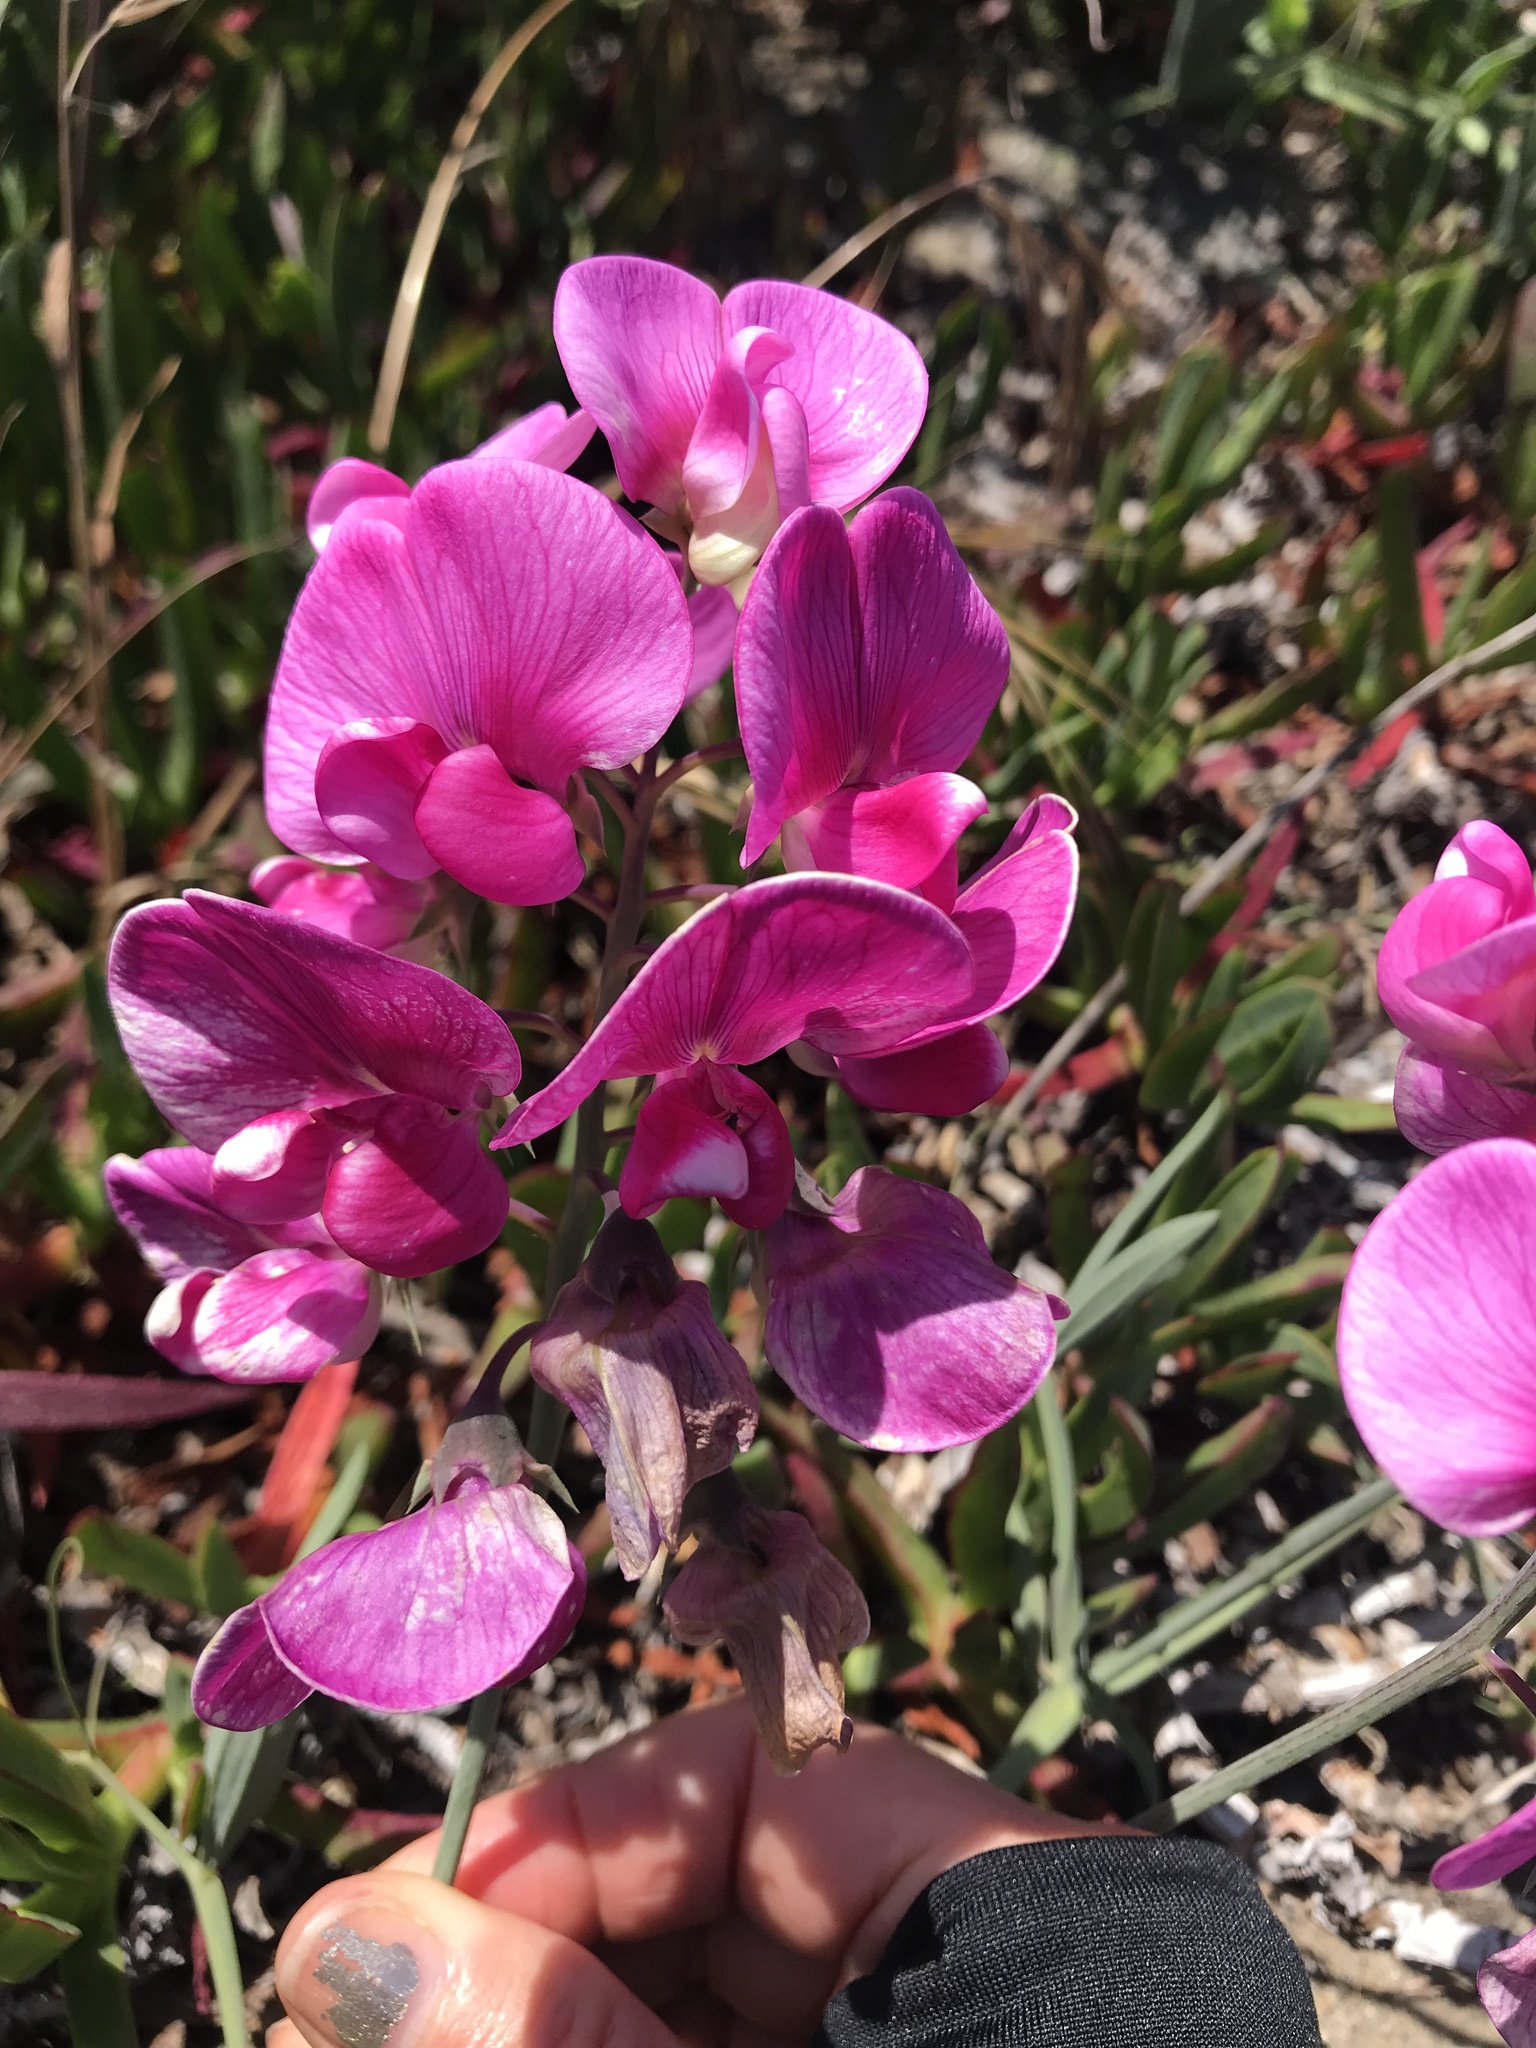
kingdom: Plantae
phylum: Tracheophyta
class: Magnoliopsida
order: Fabales
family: Fabaceae
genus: Lathyrus
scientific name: Lathyrus latifolius
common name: Perennial pea
